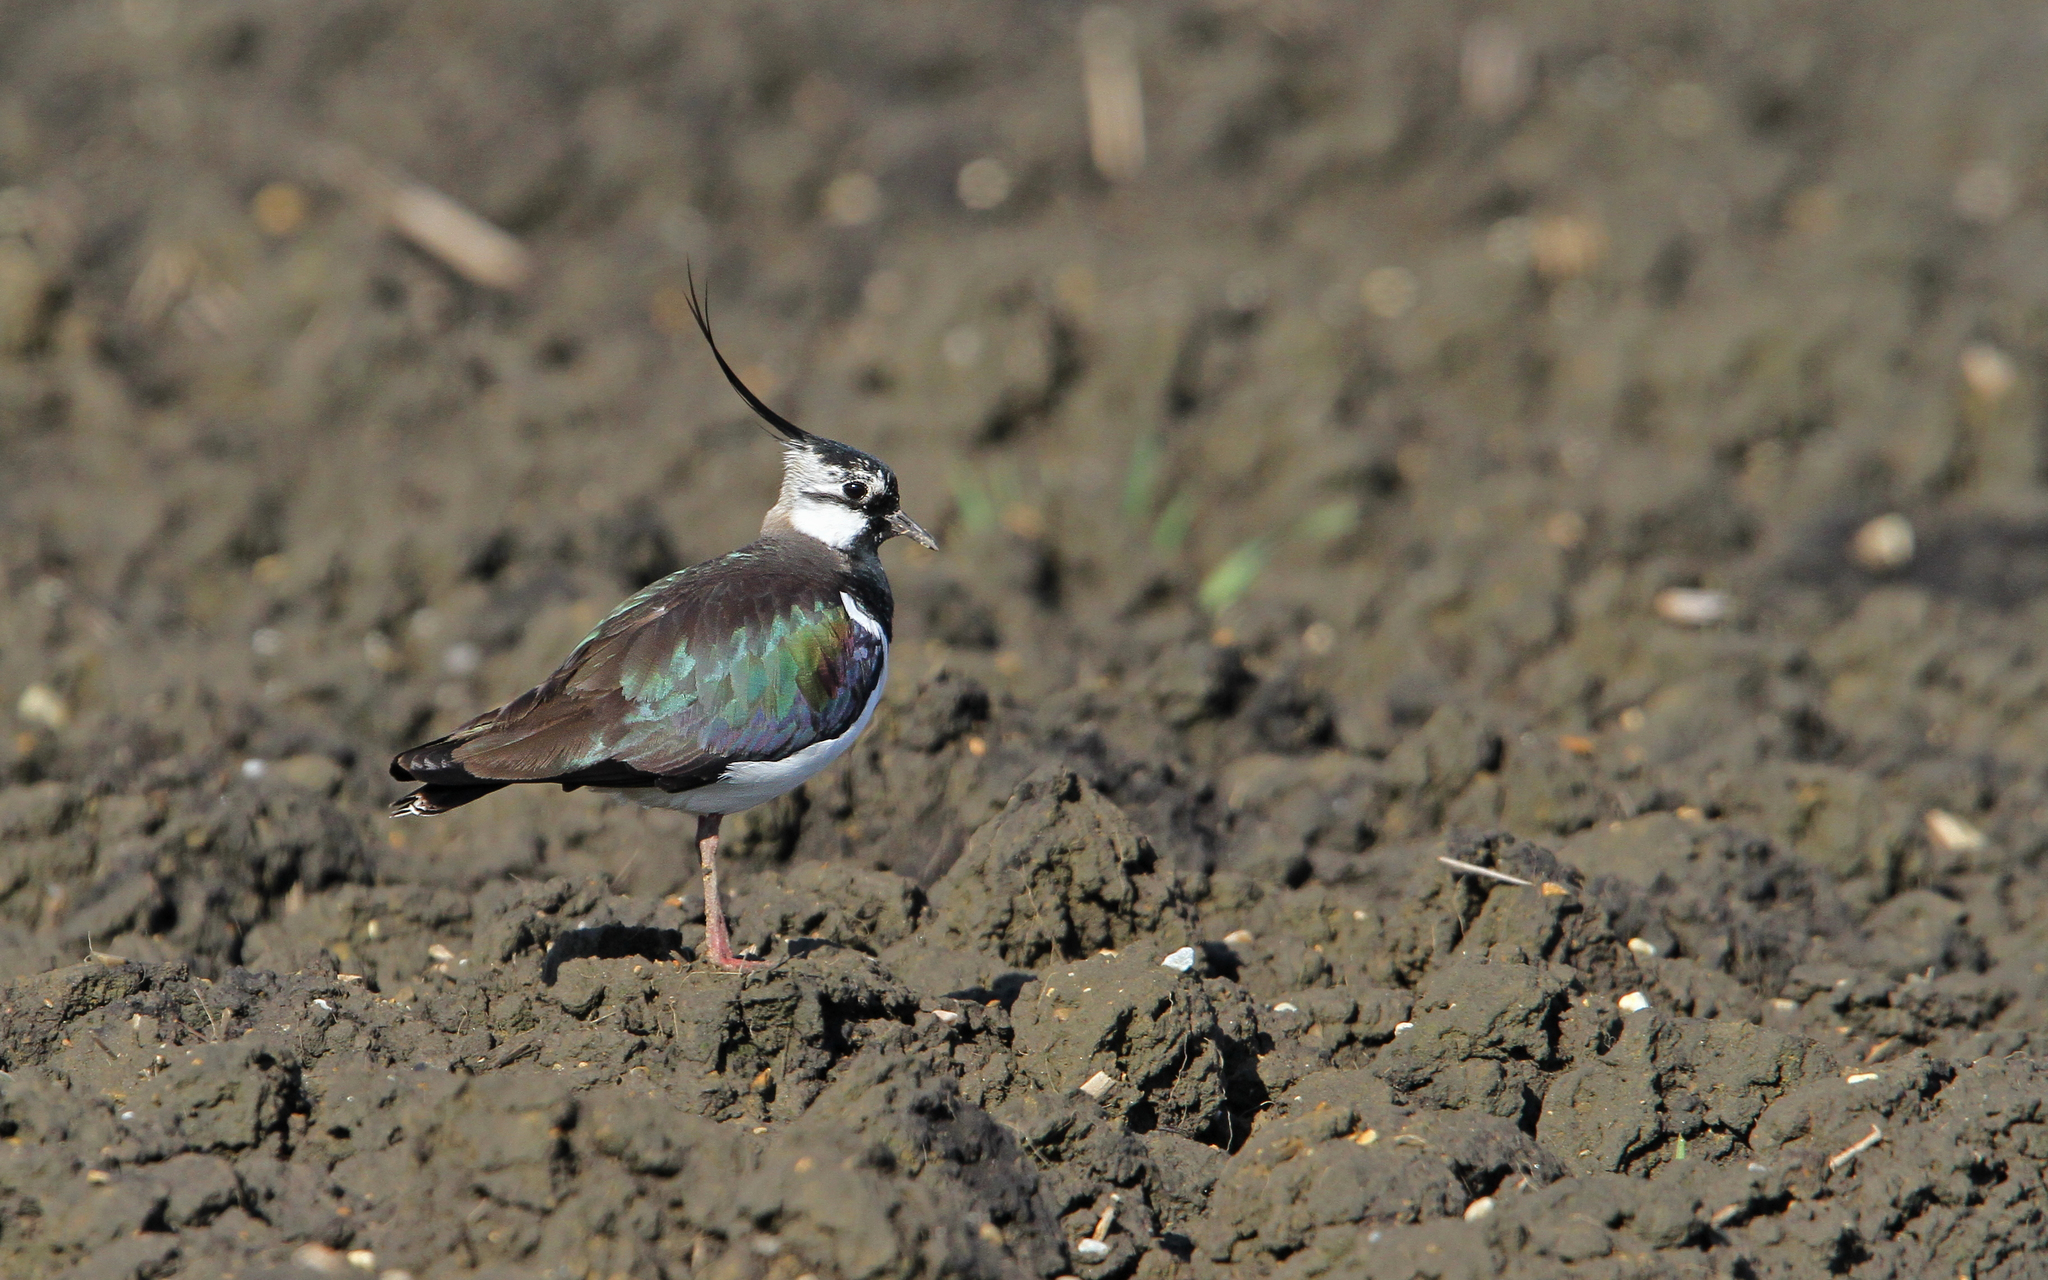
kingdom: Animalia
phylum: Chordata
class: Aves
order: Charadriiformes
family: Charadriidae
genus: Vanellus
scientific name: Vanellus vanellus
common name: Northern lapwing
